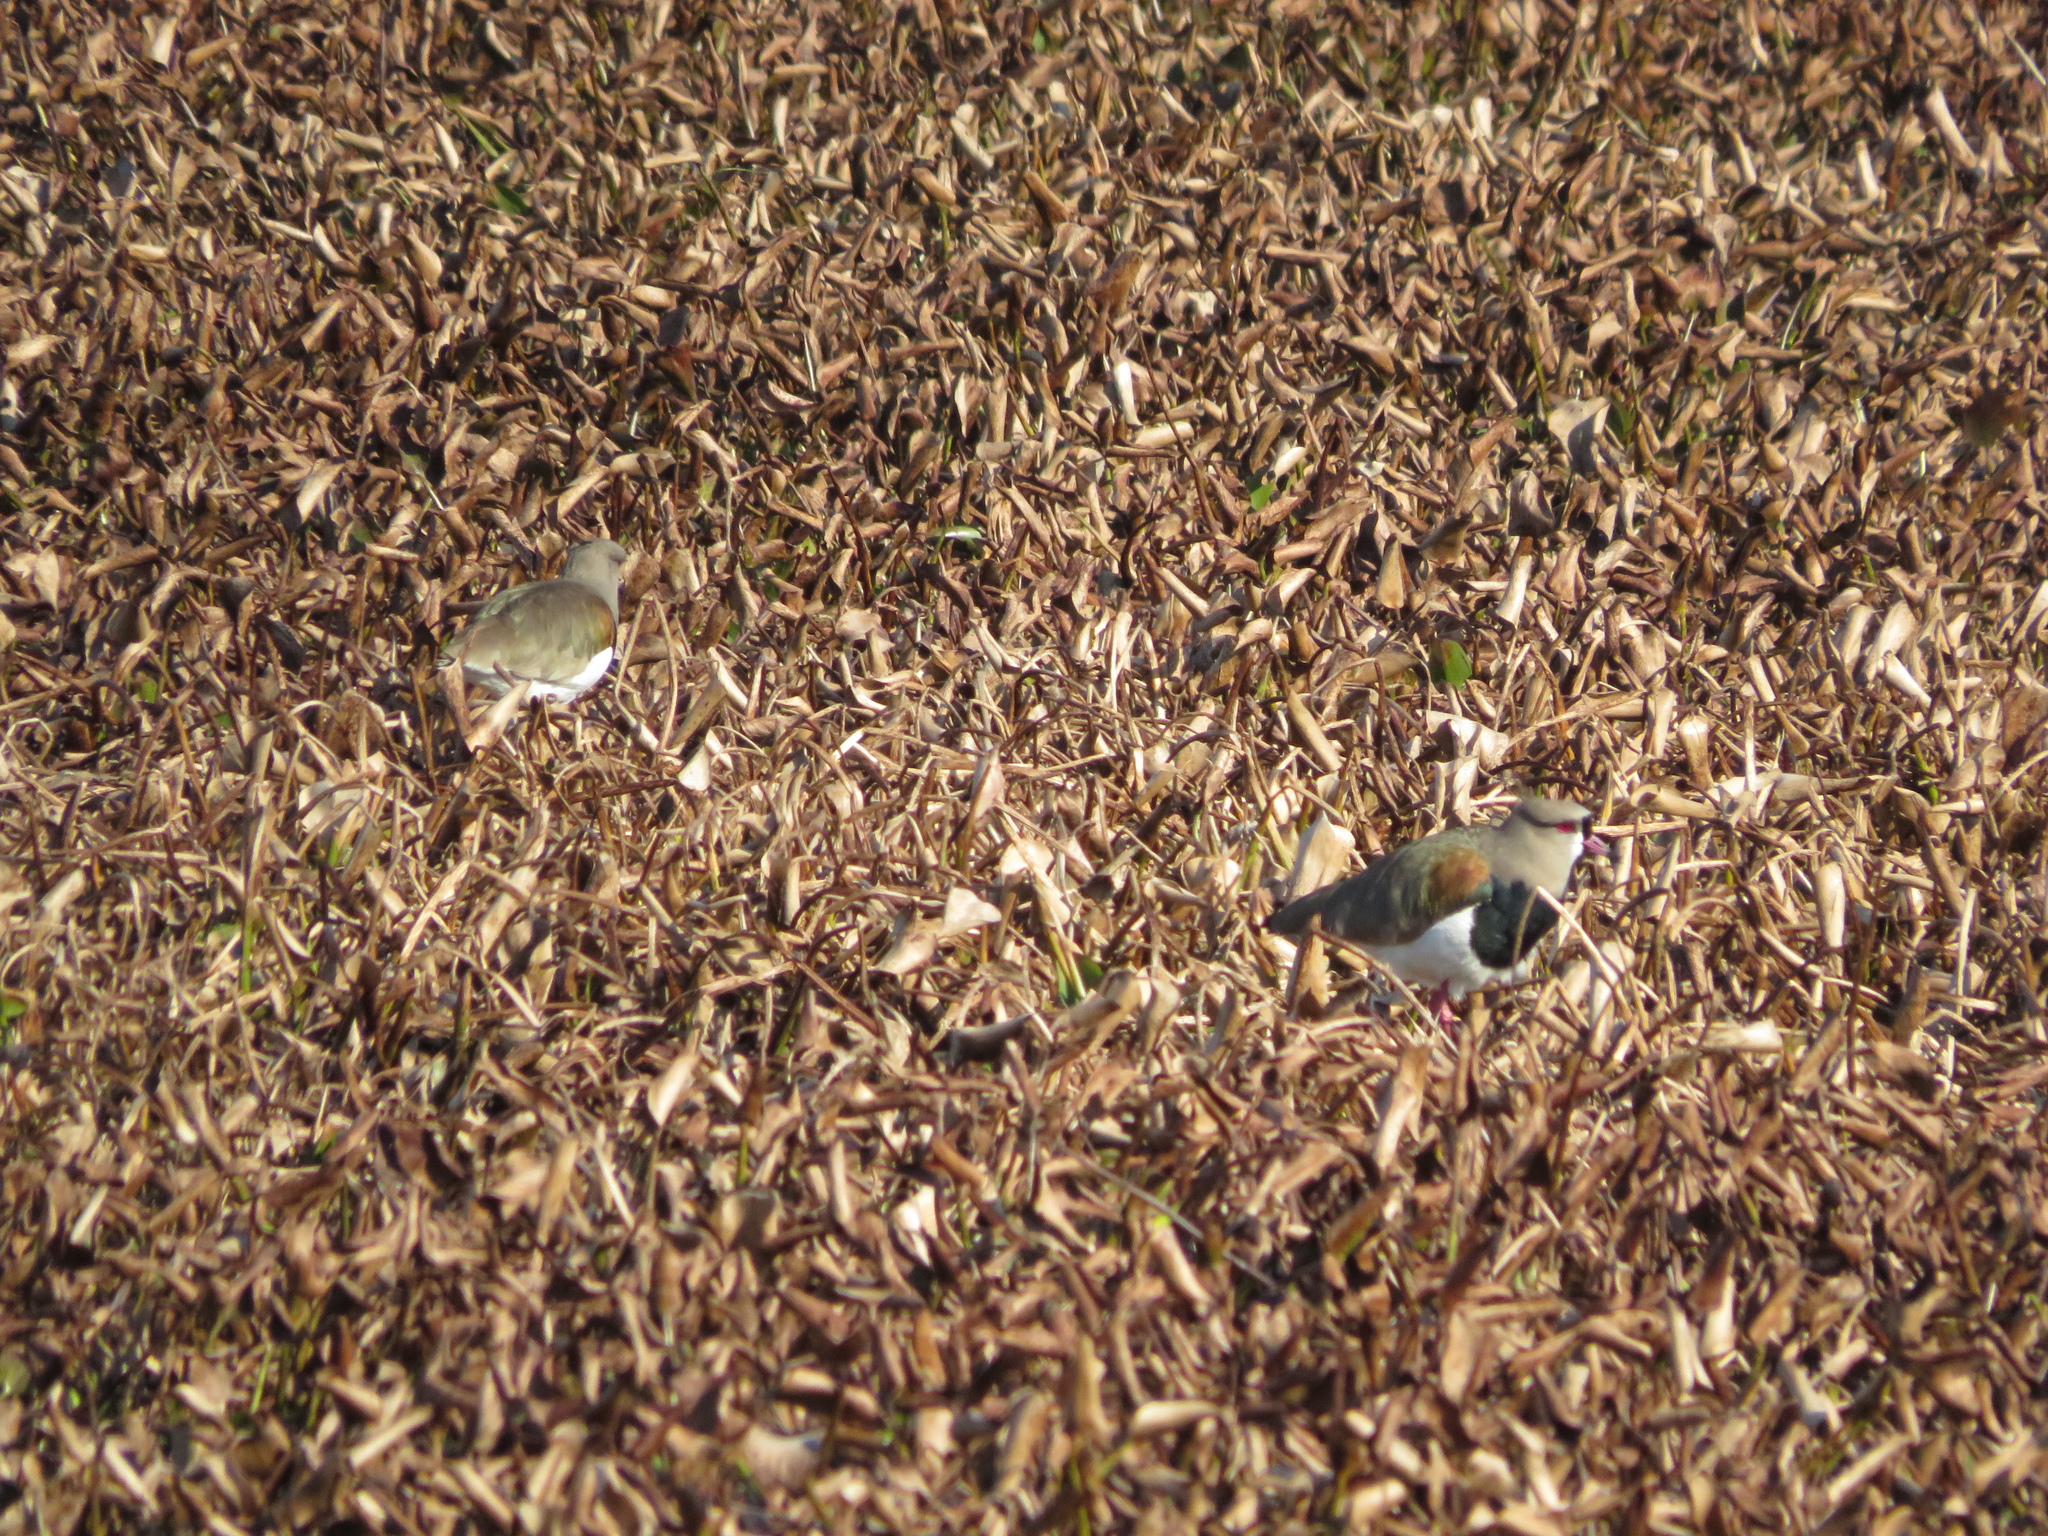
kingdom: Animalia
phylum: Chordata
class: Aves
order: Charadriiformes
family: Charadriidae
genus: Vanellus
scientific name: Vanellus chilensis
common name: Southern lapwing
